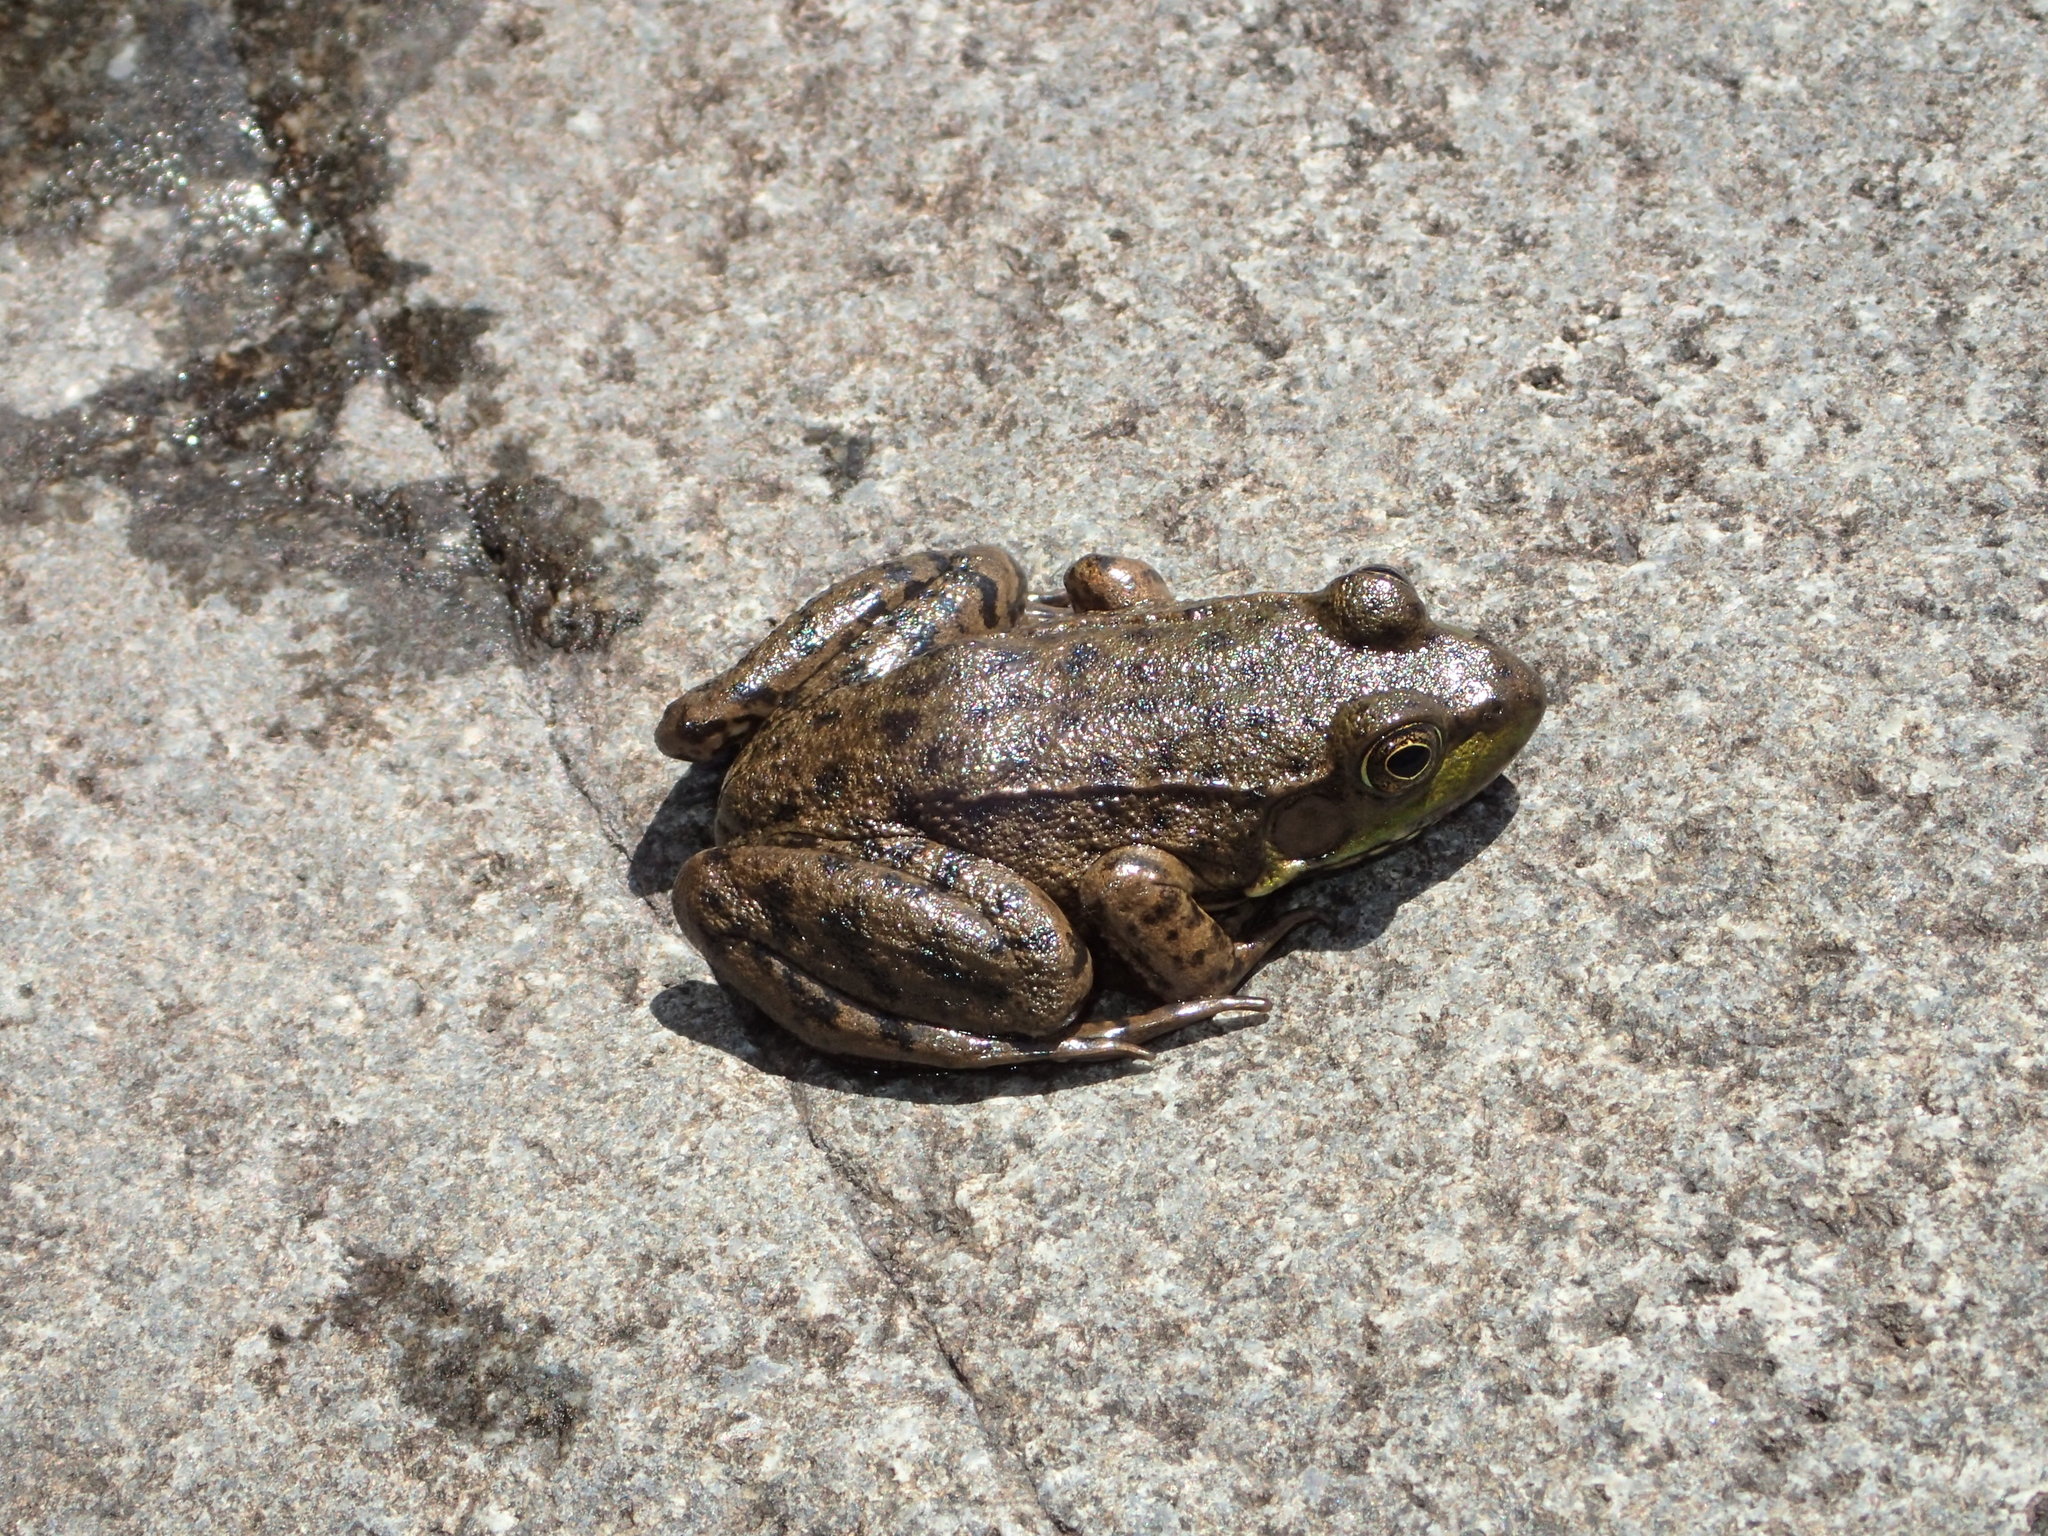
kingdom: Animalia
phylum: Chordata
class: Amphibia
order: Anura
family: Ranidae
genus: Lithobates
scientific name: Lithobates clamitans
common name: Green frog
